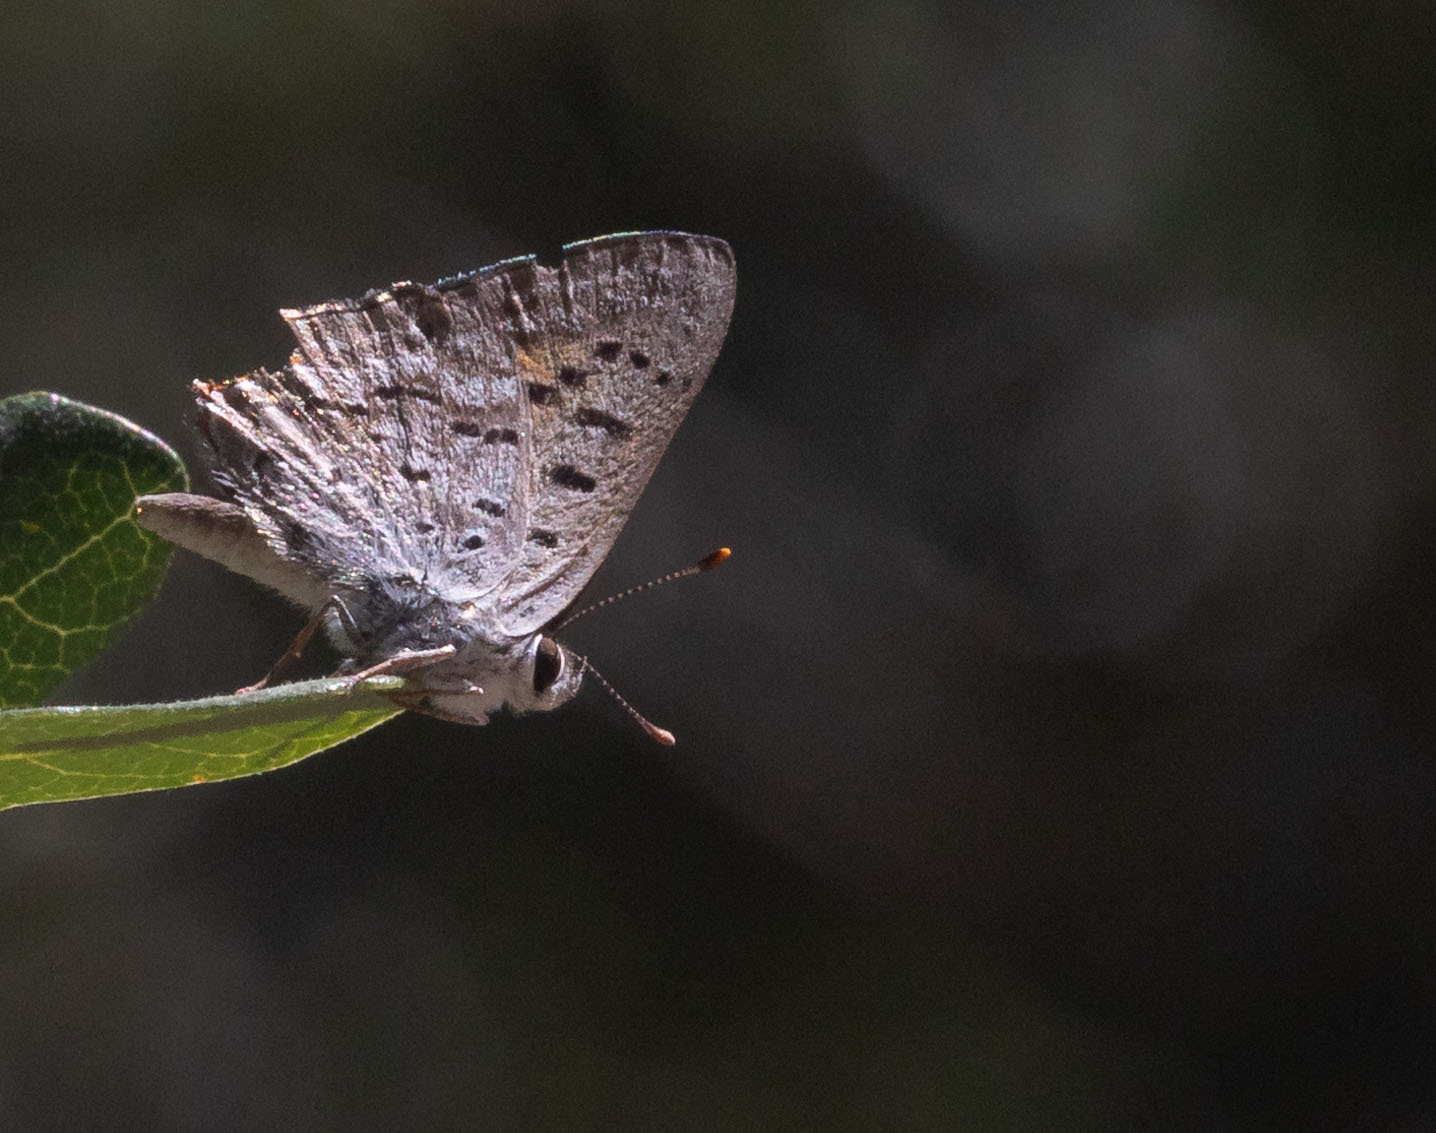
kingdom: Animalia
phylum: Arthropoda
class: Insecta
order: Lepidoptera
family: Lycaenidae
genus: Tharsalea
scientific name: Tharsalea arota
